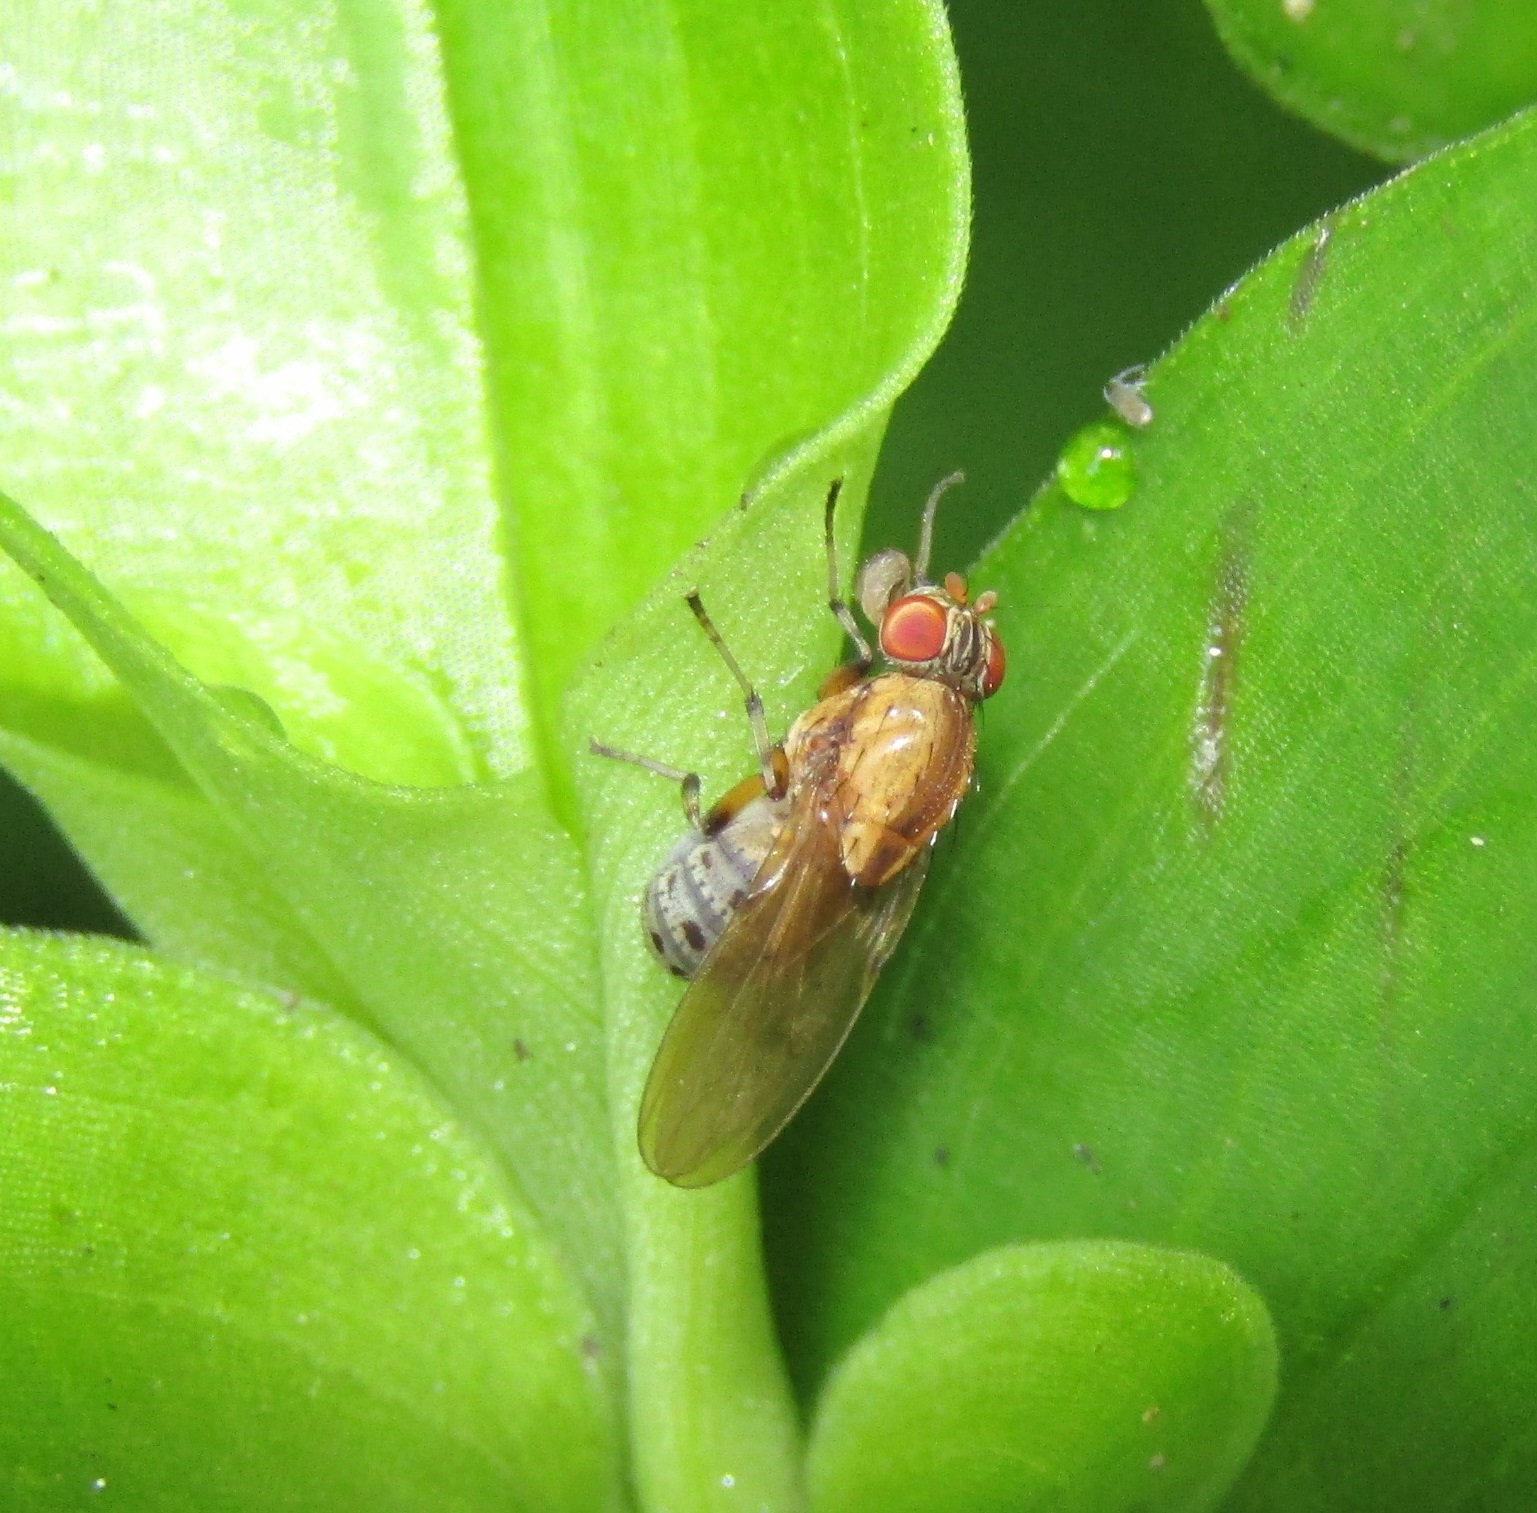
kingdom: Animalia
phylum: Arthropoda
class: Insecta
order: Diptera
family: Lauxaniidae
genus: Sapromyza
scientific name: Sapromyza neozelandica
